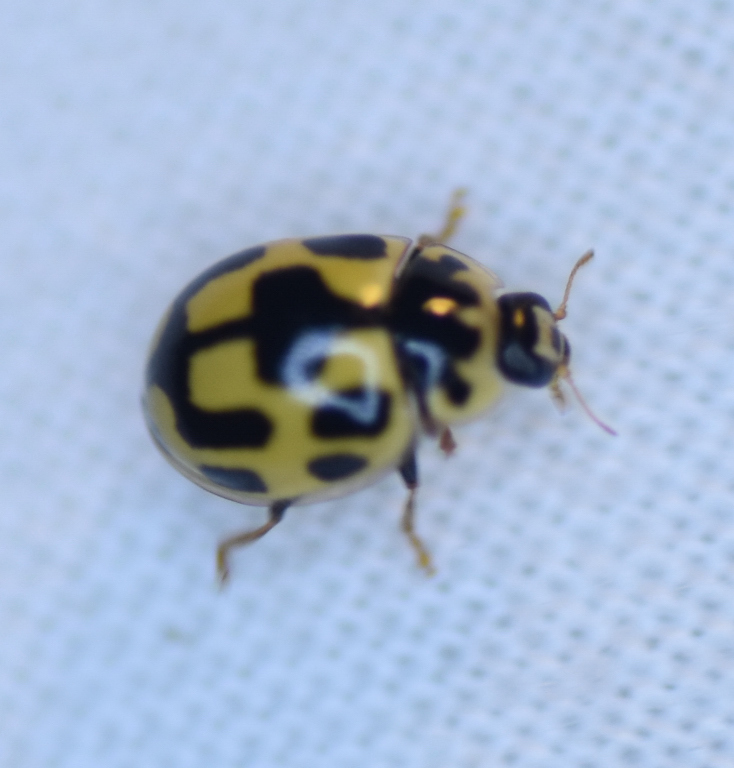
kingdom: Animalia
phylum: Arthropoda
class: Insecta
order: Coleoptera
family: Coccinellidae
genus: Propylaea
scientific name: Propylaea quatuordecimpunctata
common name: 14-spotted ladybird beetle
